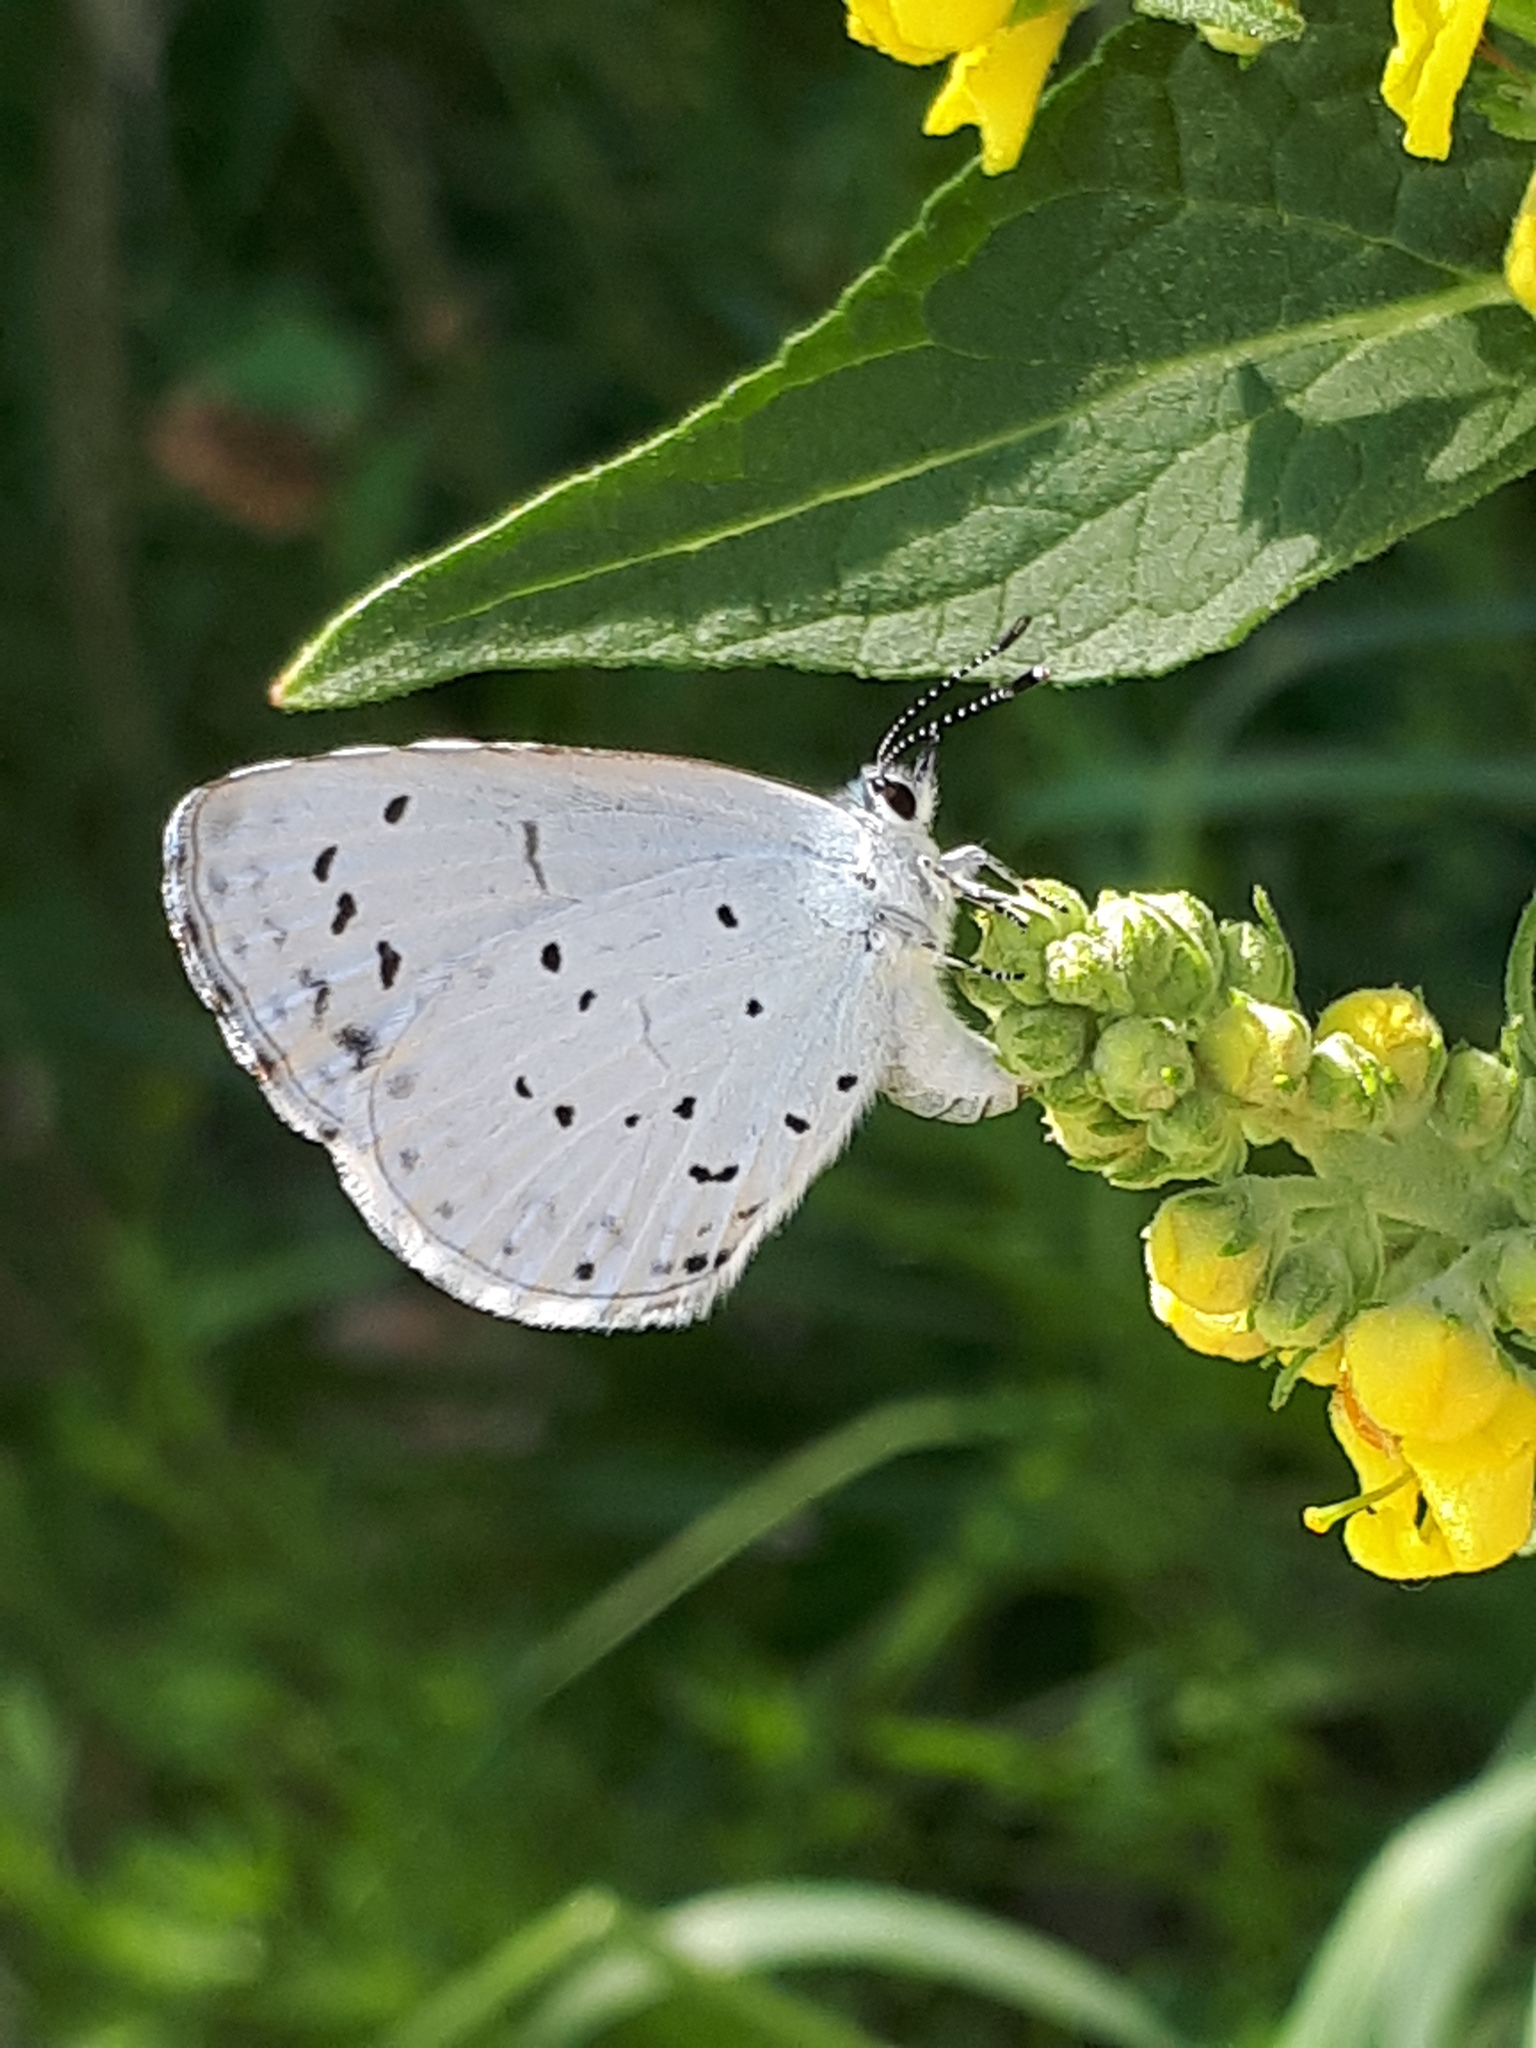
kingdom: Animalia
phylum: Arthropoda
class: Insecta
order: Lepidoptera
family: Lycaenidae
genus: Celastrina
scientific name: Celastrina argiolus
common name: Holly blue
